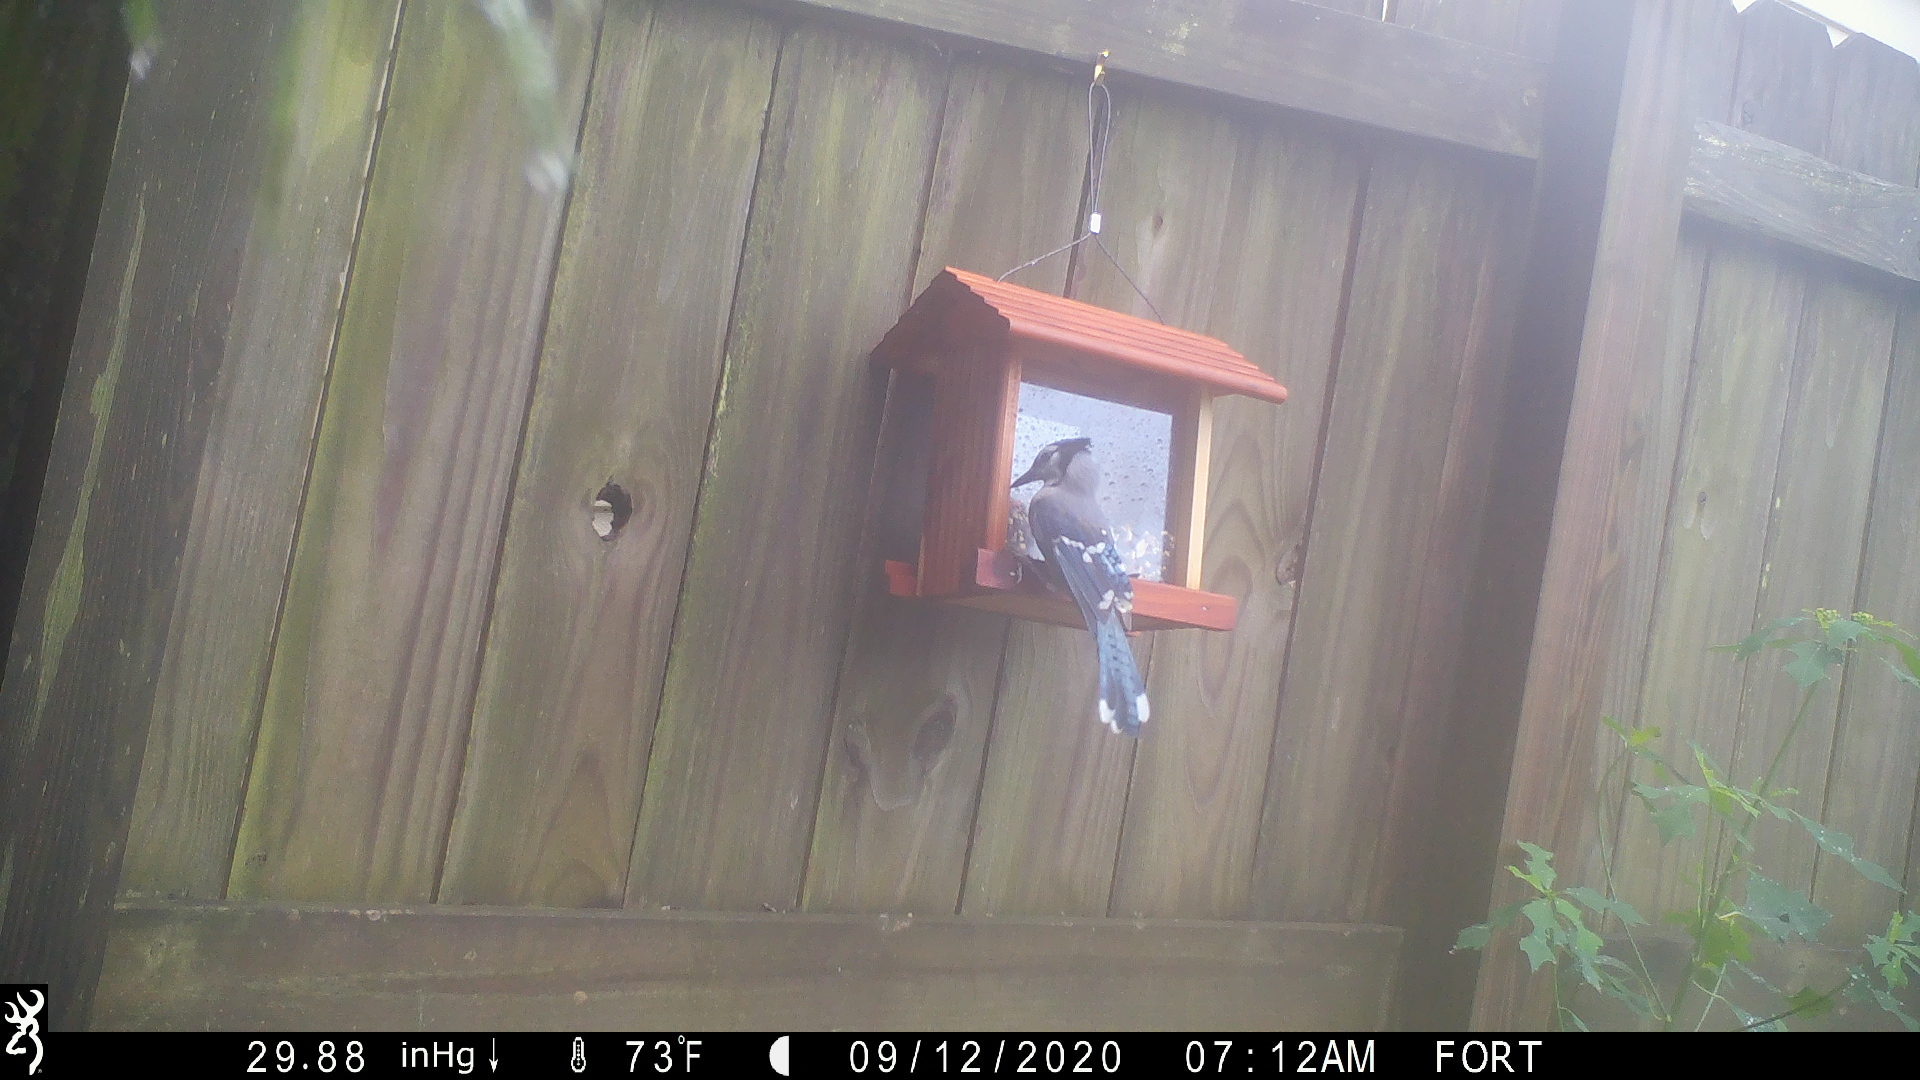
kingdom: Animalia
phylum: Chordata
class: Aves
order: Passeriformes
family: Corvidae
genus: Cyanocitta
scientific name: Cyanocitta cristata
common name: Blue jay
